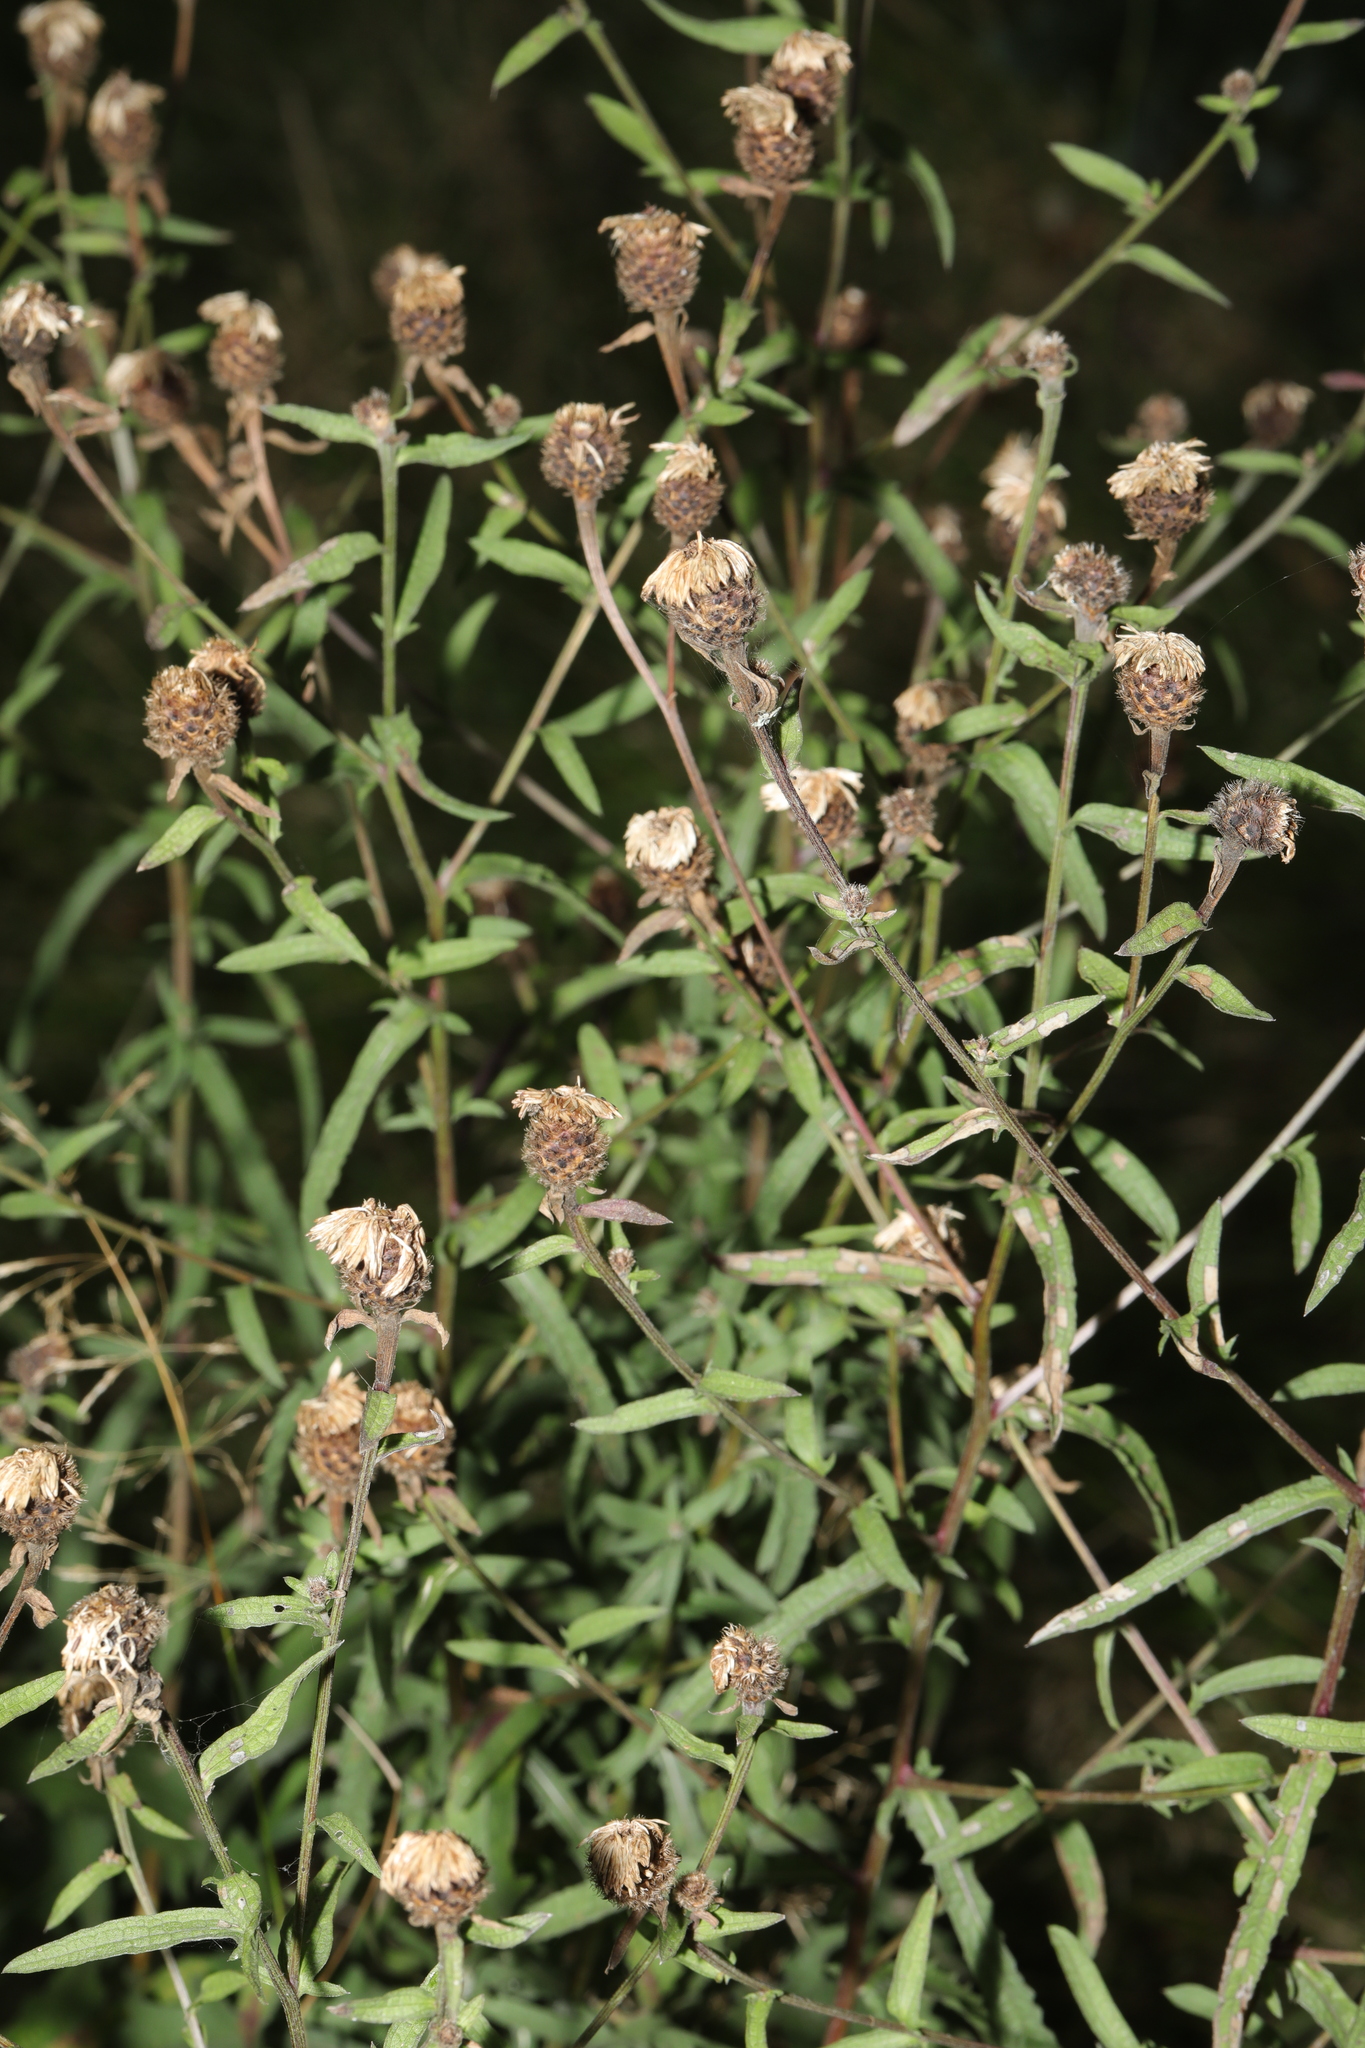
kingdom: Plantae
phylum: Tracheophyta
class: Magnoliopsida
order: Asterales
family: Asteraceae
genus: Centaurea
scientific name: Centaurea nigra
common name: Lesser knapweed
